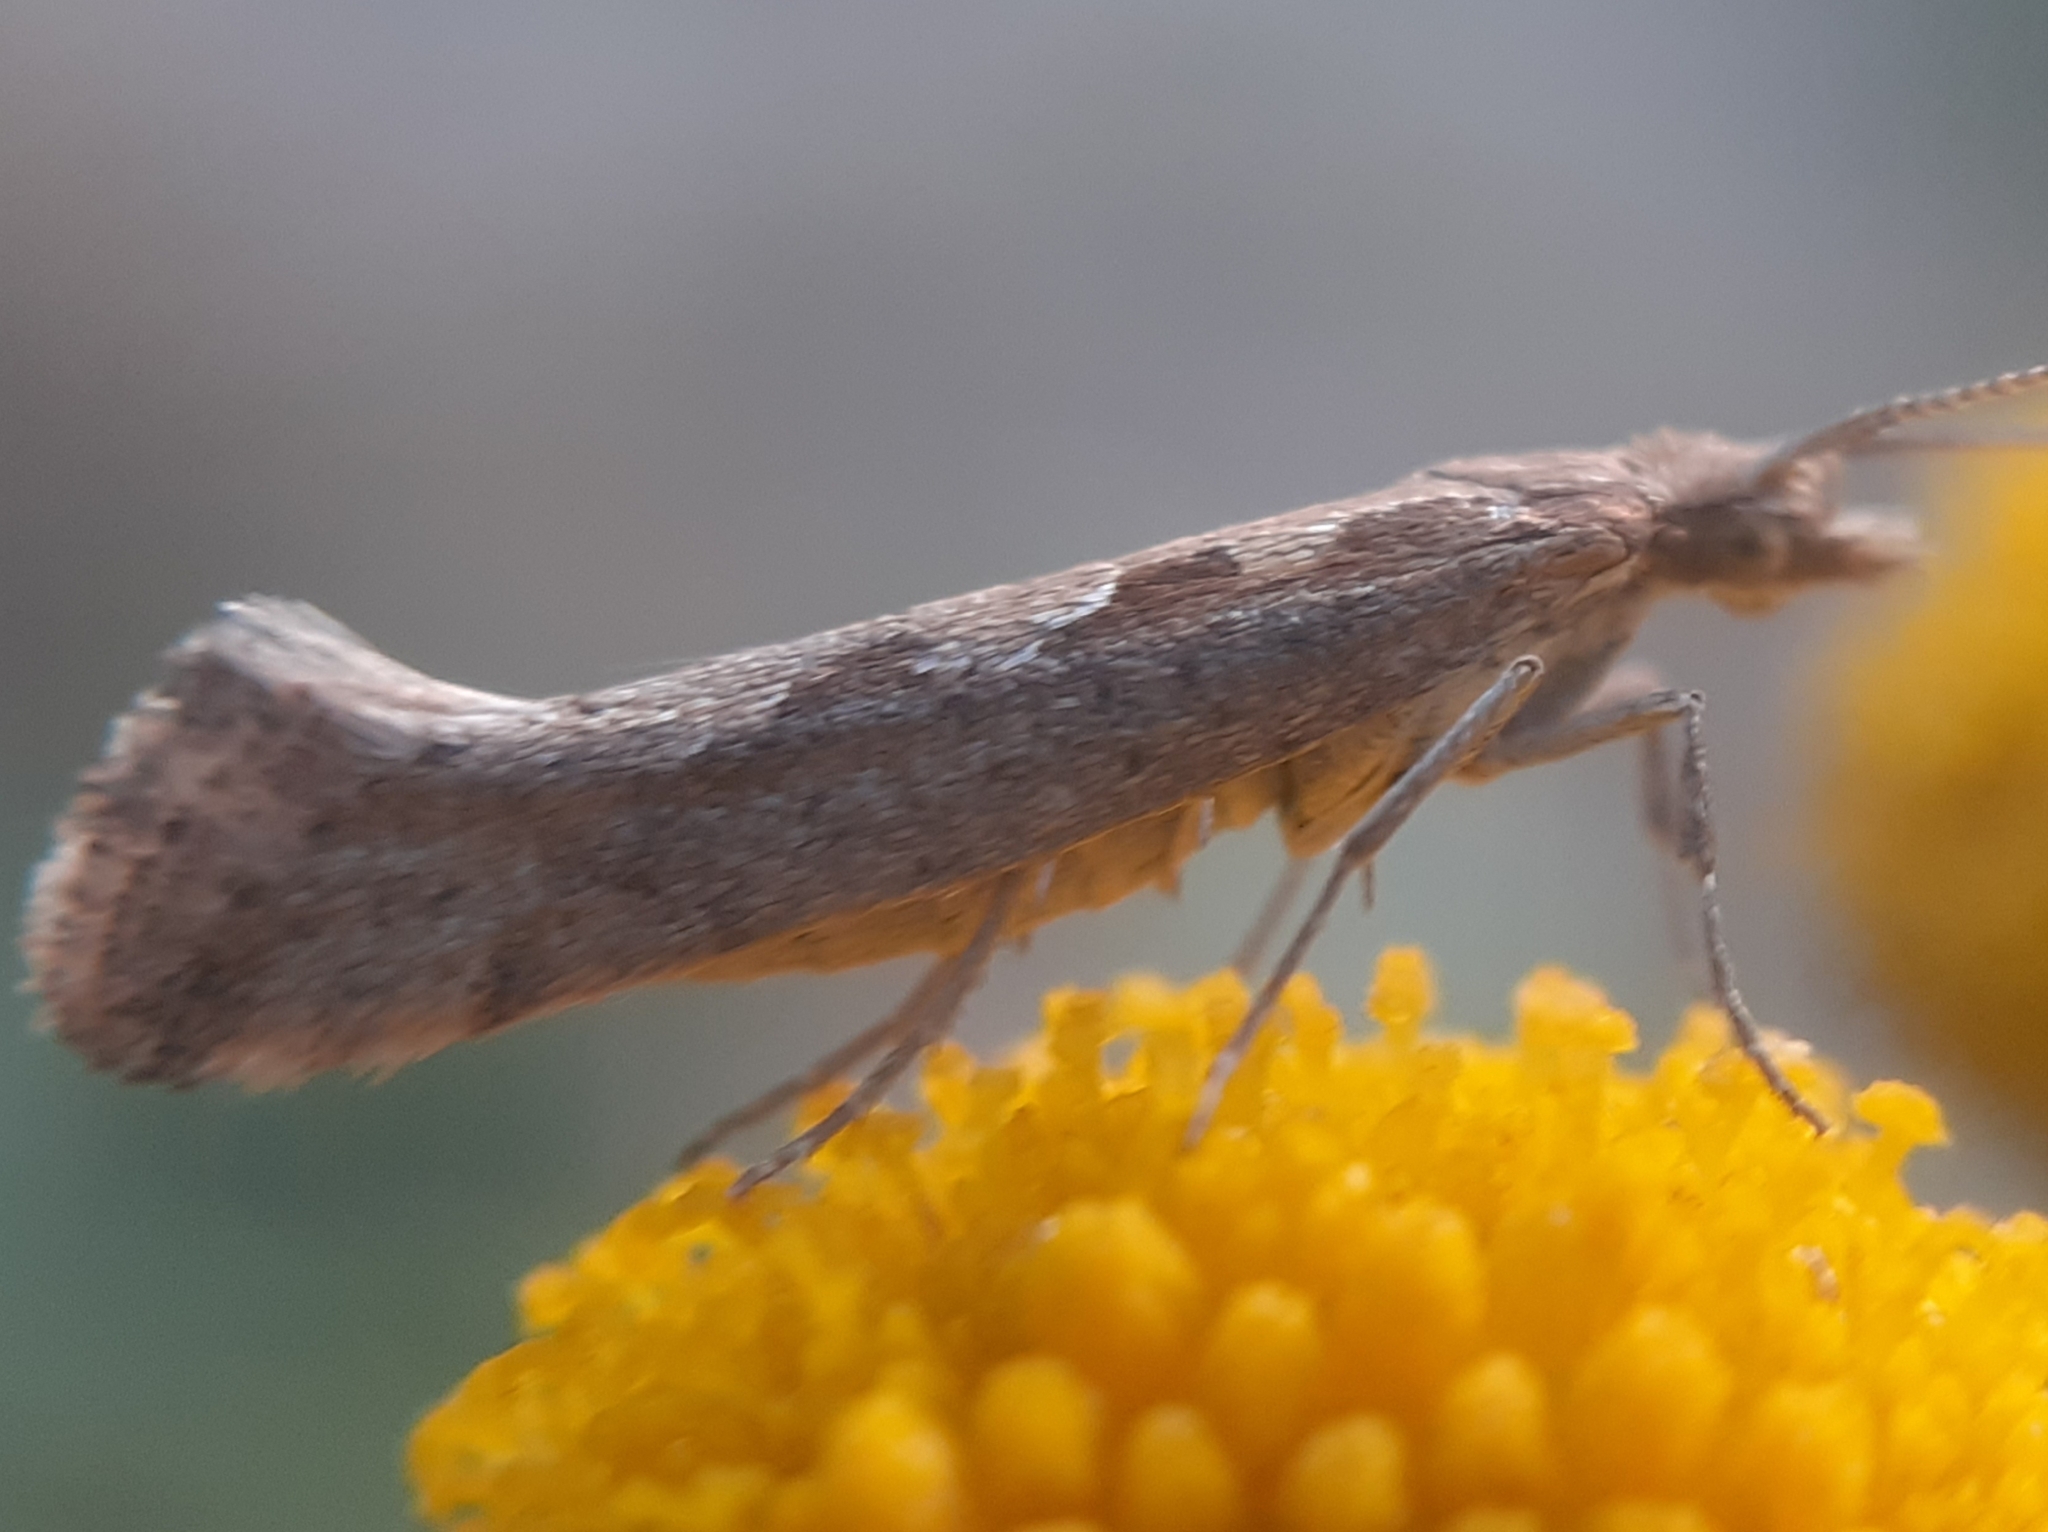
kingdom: Animalia
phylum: Arthropoda
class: Insecta
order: Lepidoptera
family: Plutellidae
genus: Plutella
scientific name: Plutella xylostella
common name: Diamond-back moth
